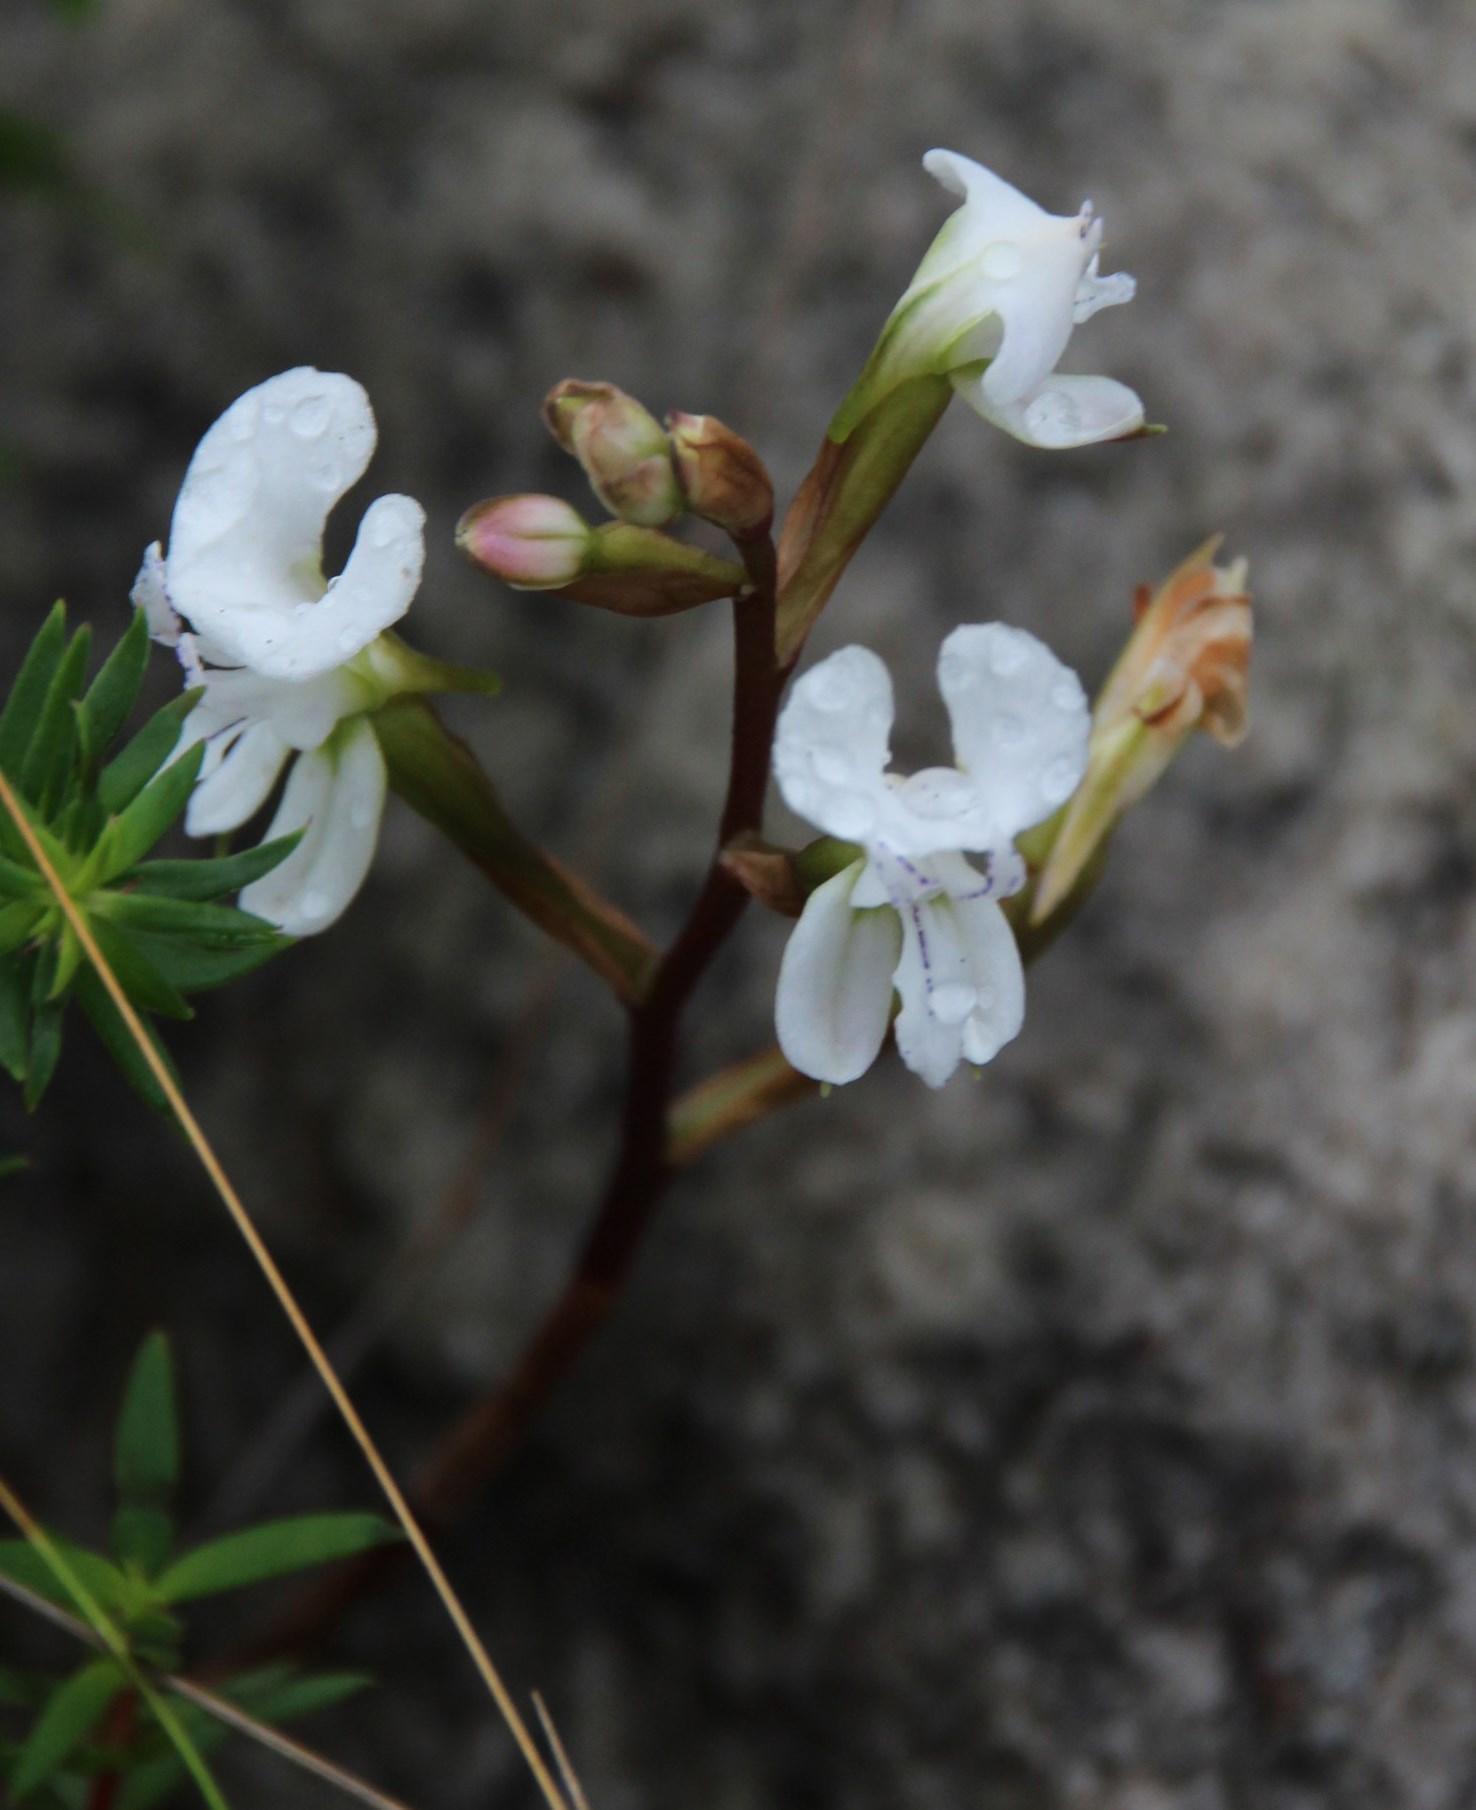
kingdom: Plantae
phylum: Tracheophyta
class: Liliopsida
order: Asparagales
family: Orchidaceae
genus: Disa
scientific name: Disa sagittalis
